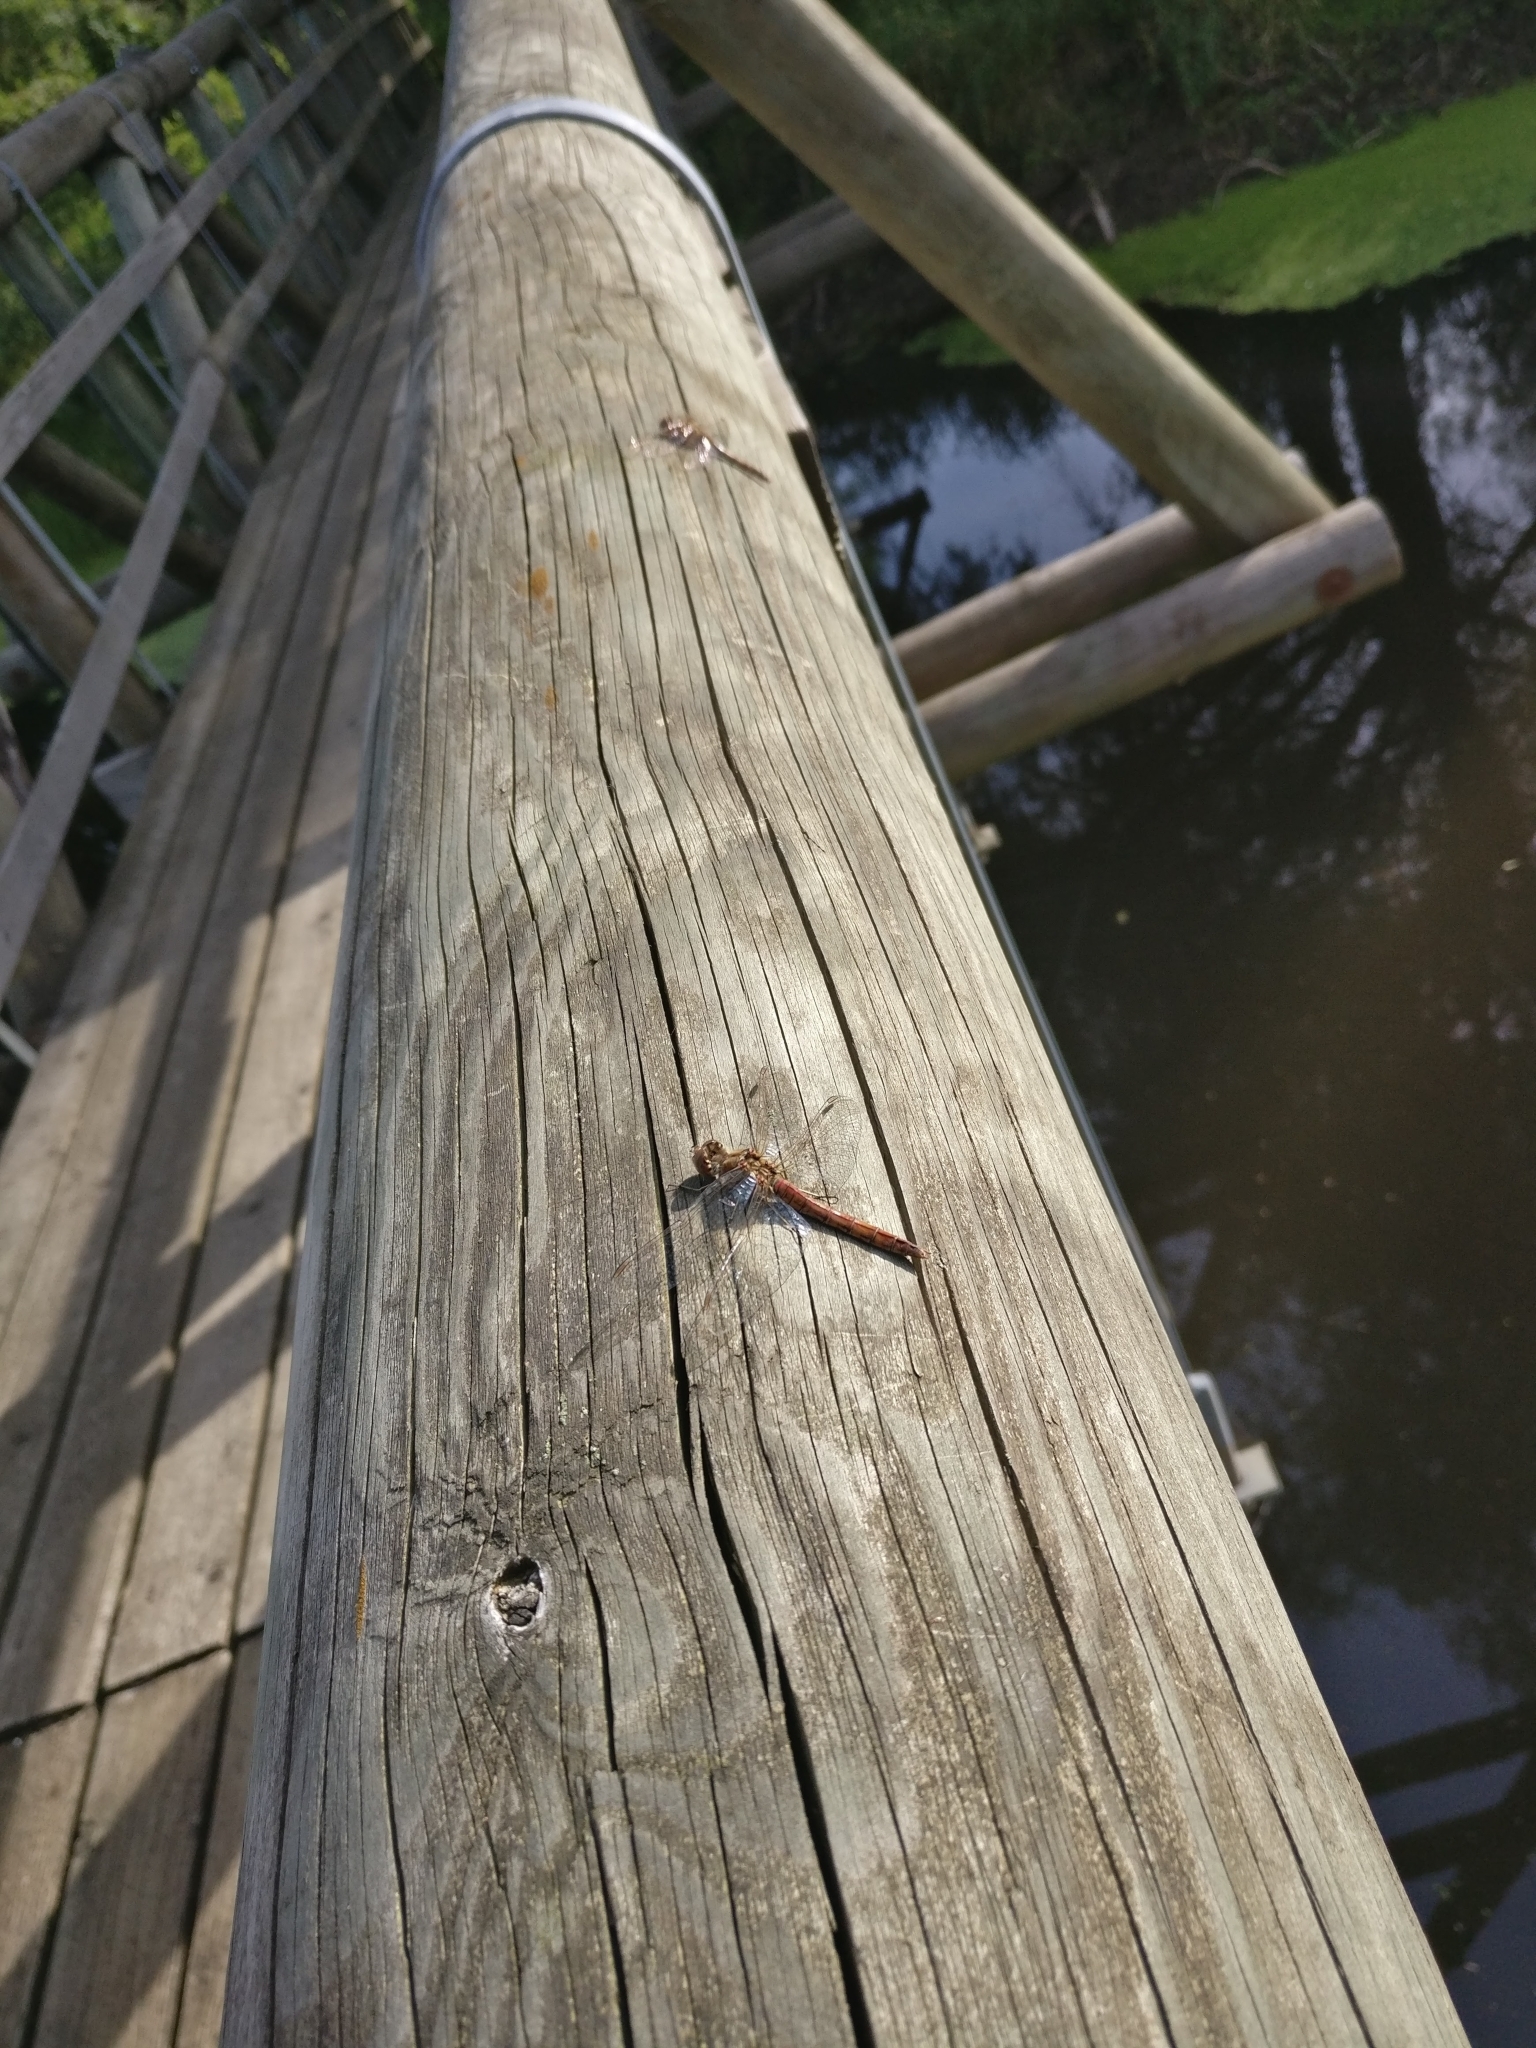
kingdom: Animalia
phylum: Arthropoda
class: Insecta
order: Odonata
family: Libellulidae
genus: Sympetrum
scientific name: Sympetrum vulgatum
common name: Vagrant darter
